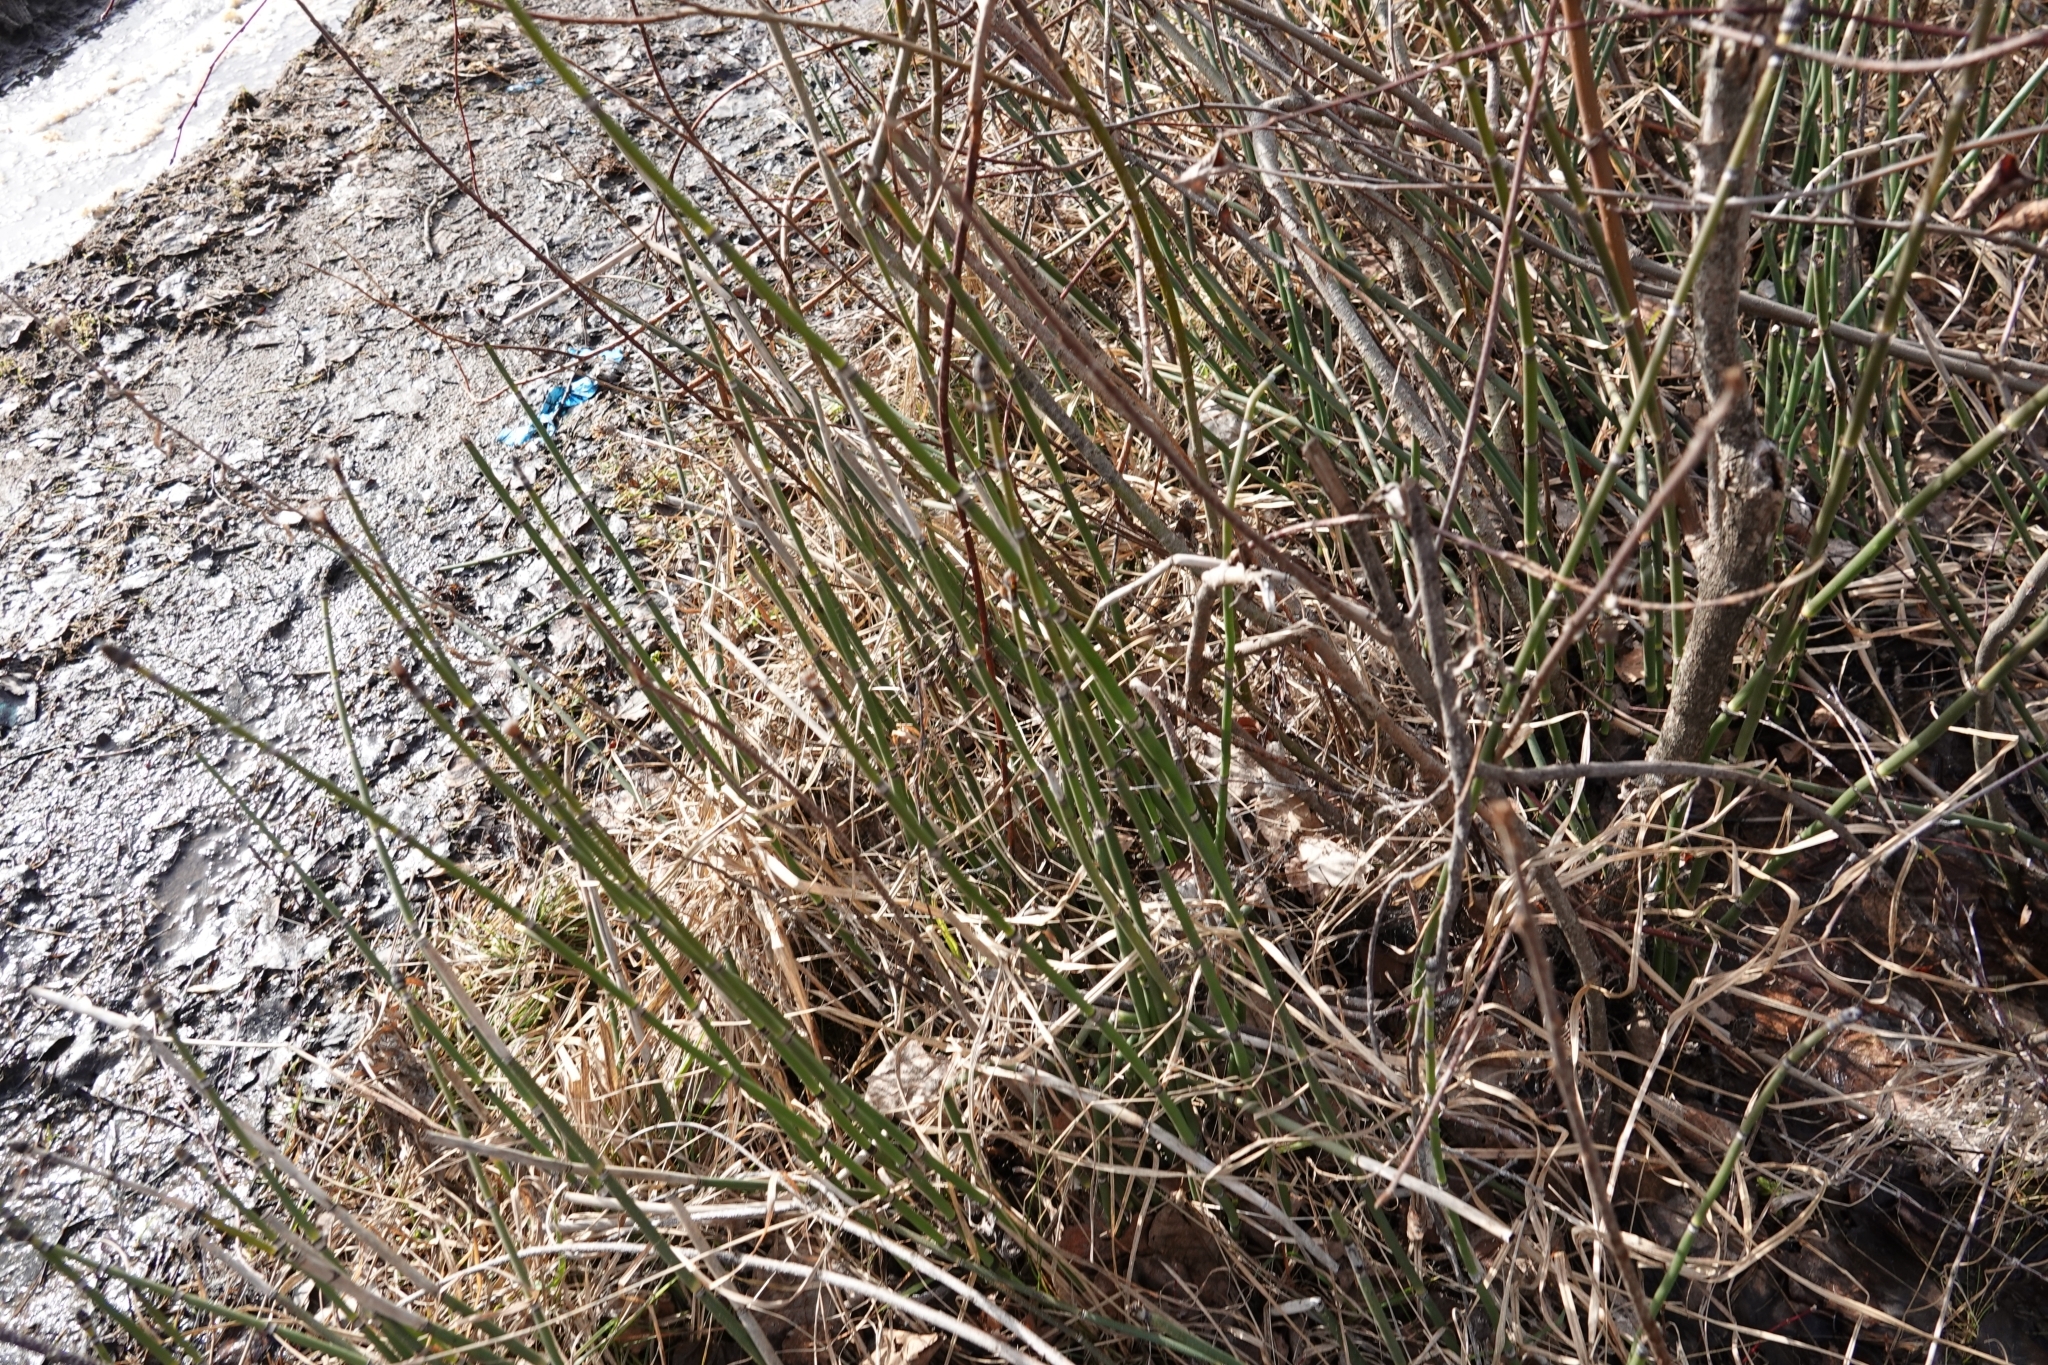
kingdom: Plantae
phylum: Tracheophyta
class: Polypodiopsida
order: Equisetales
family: Equisetaceae
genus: Equisetum
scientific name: Equisetum hyemale
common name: Rough horsetail
